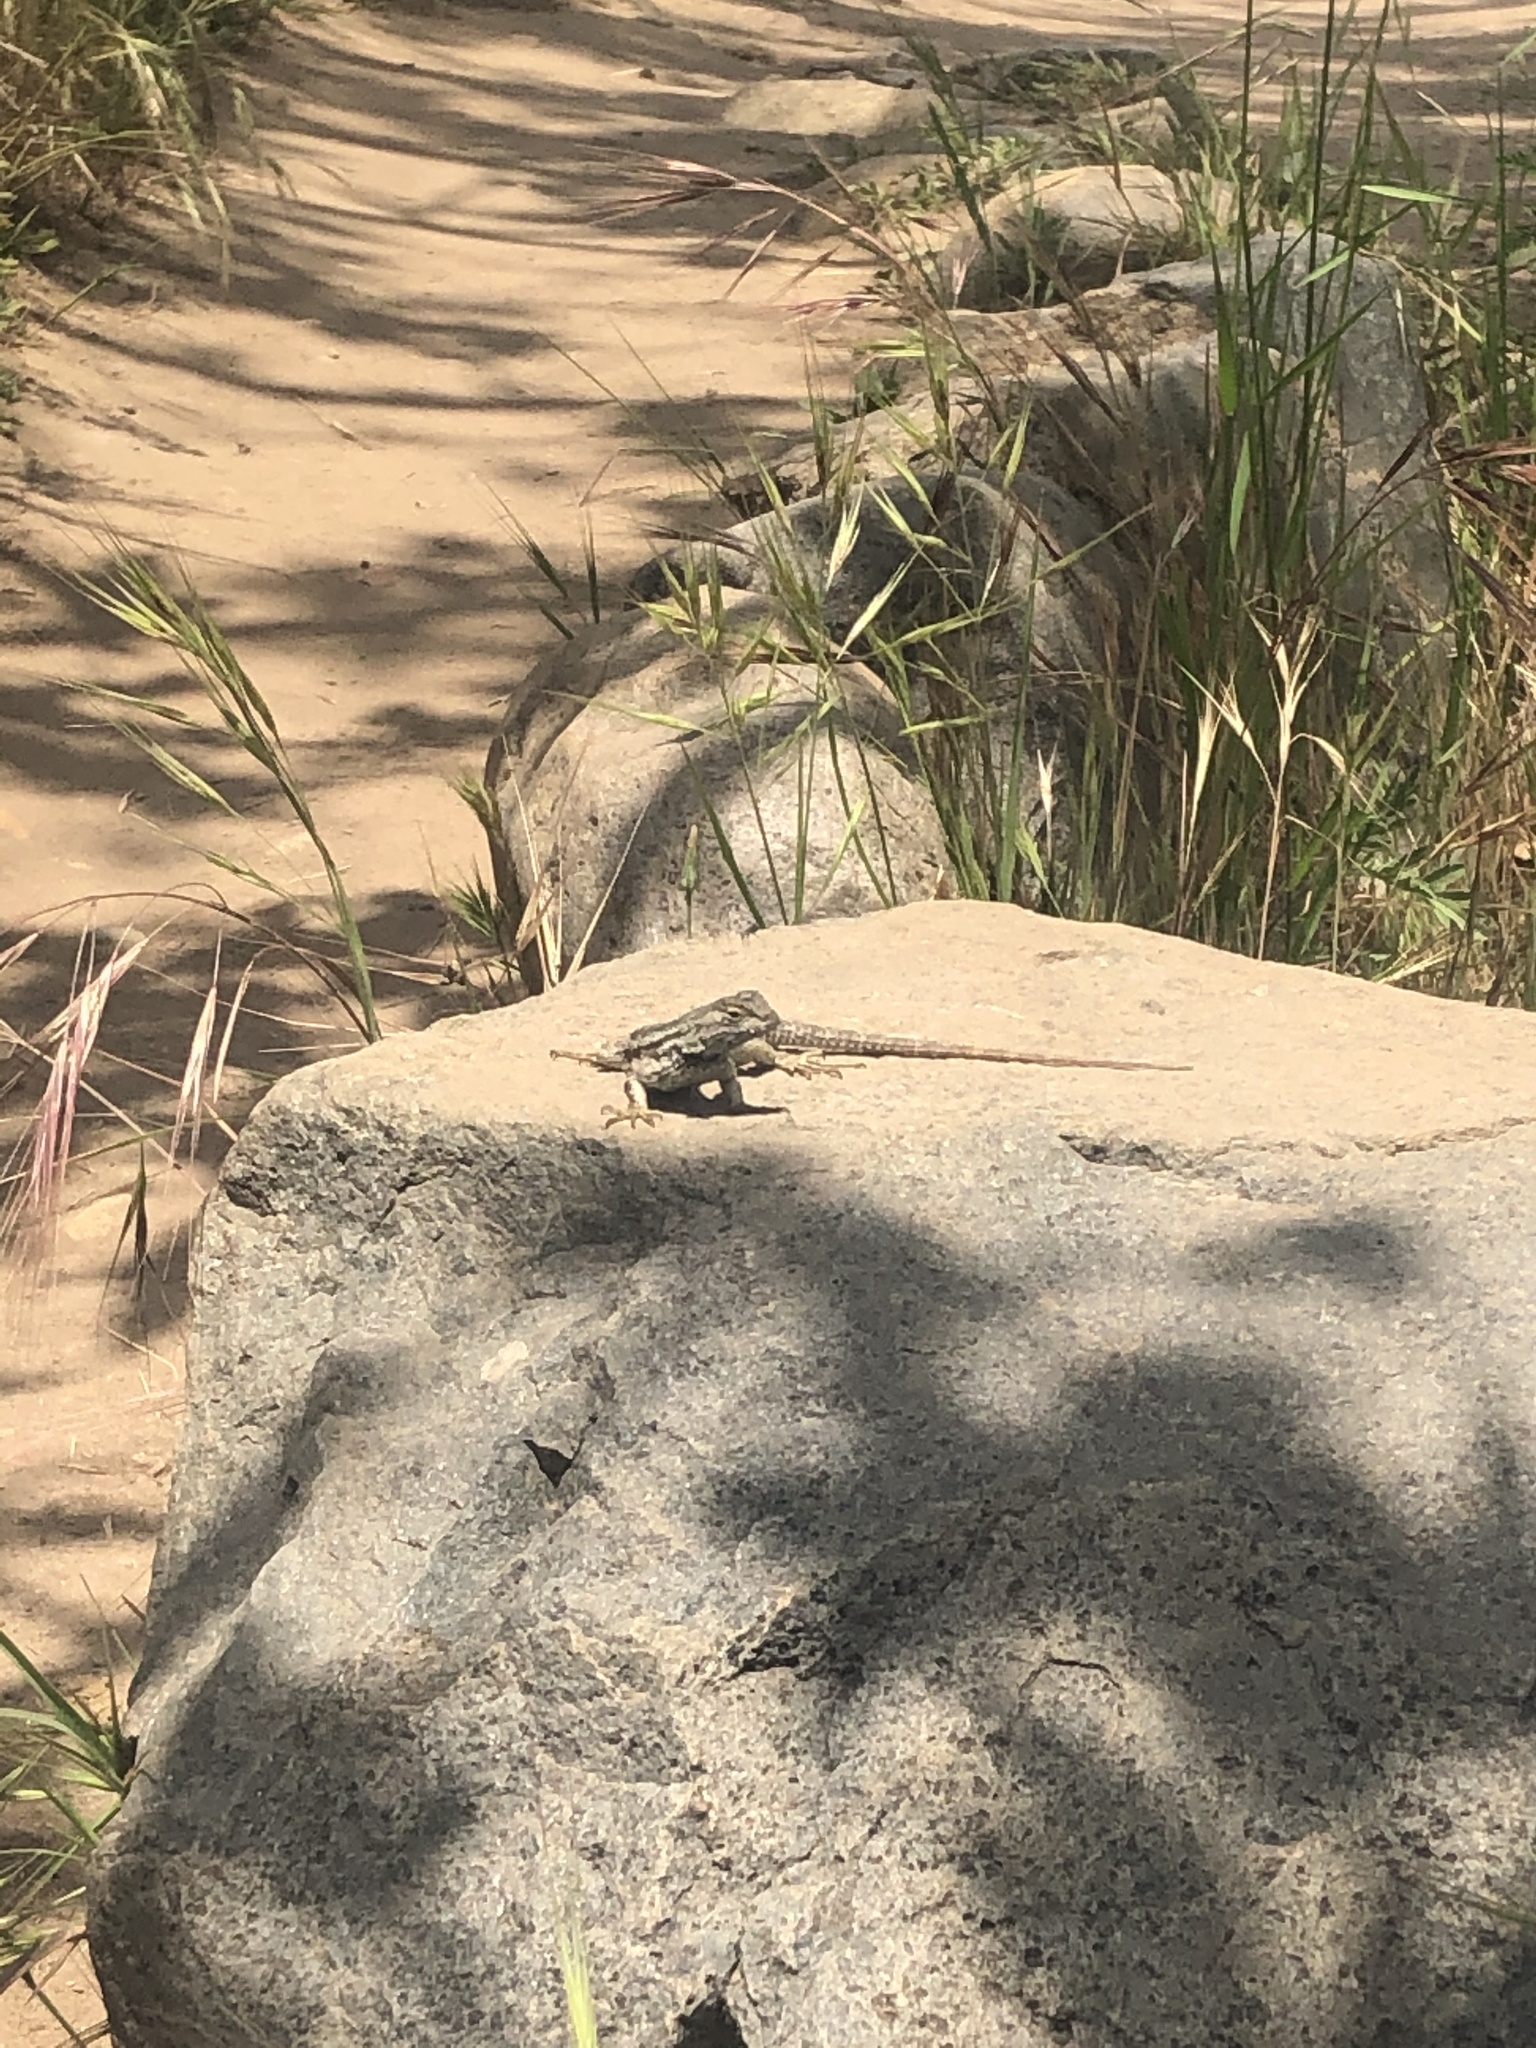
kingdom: Animalia
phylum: Chordata
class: Squamata
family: Phrynosomatidae
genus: Sceloporus
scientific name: Sceloporus occidentalis
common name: Western fence lizard
